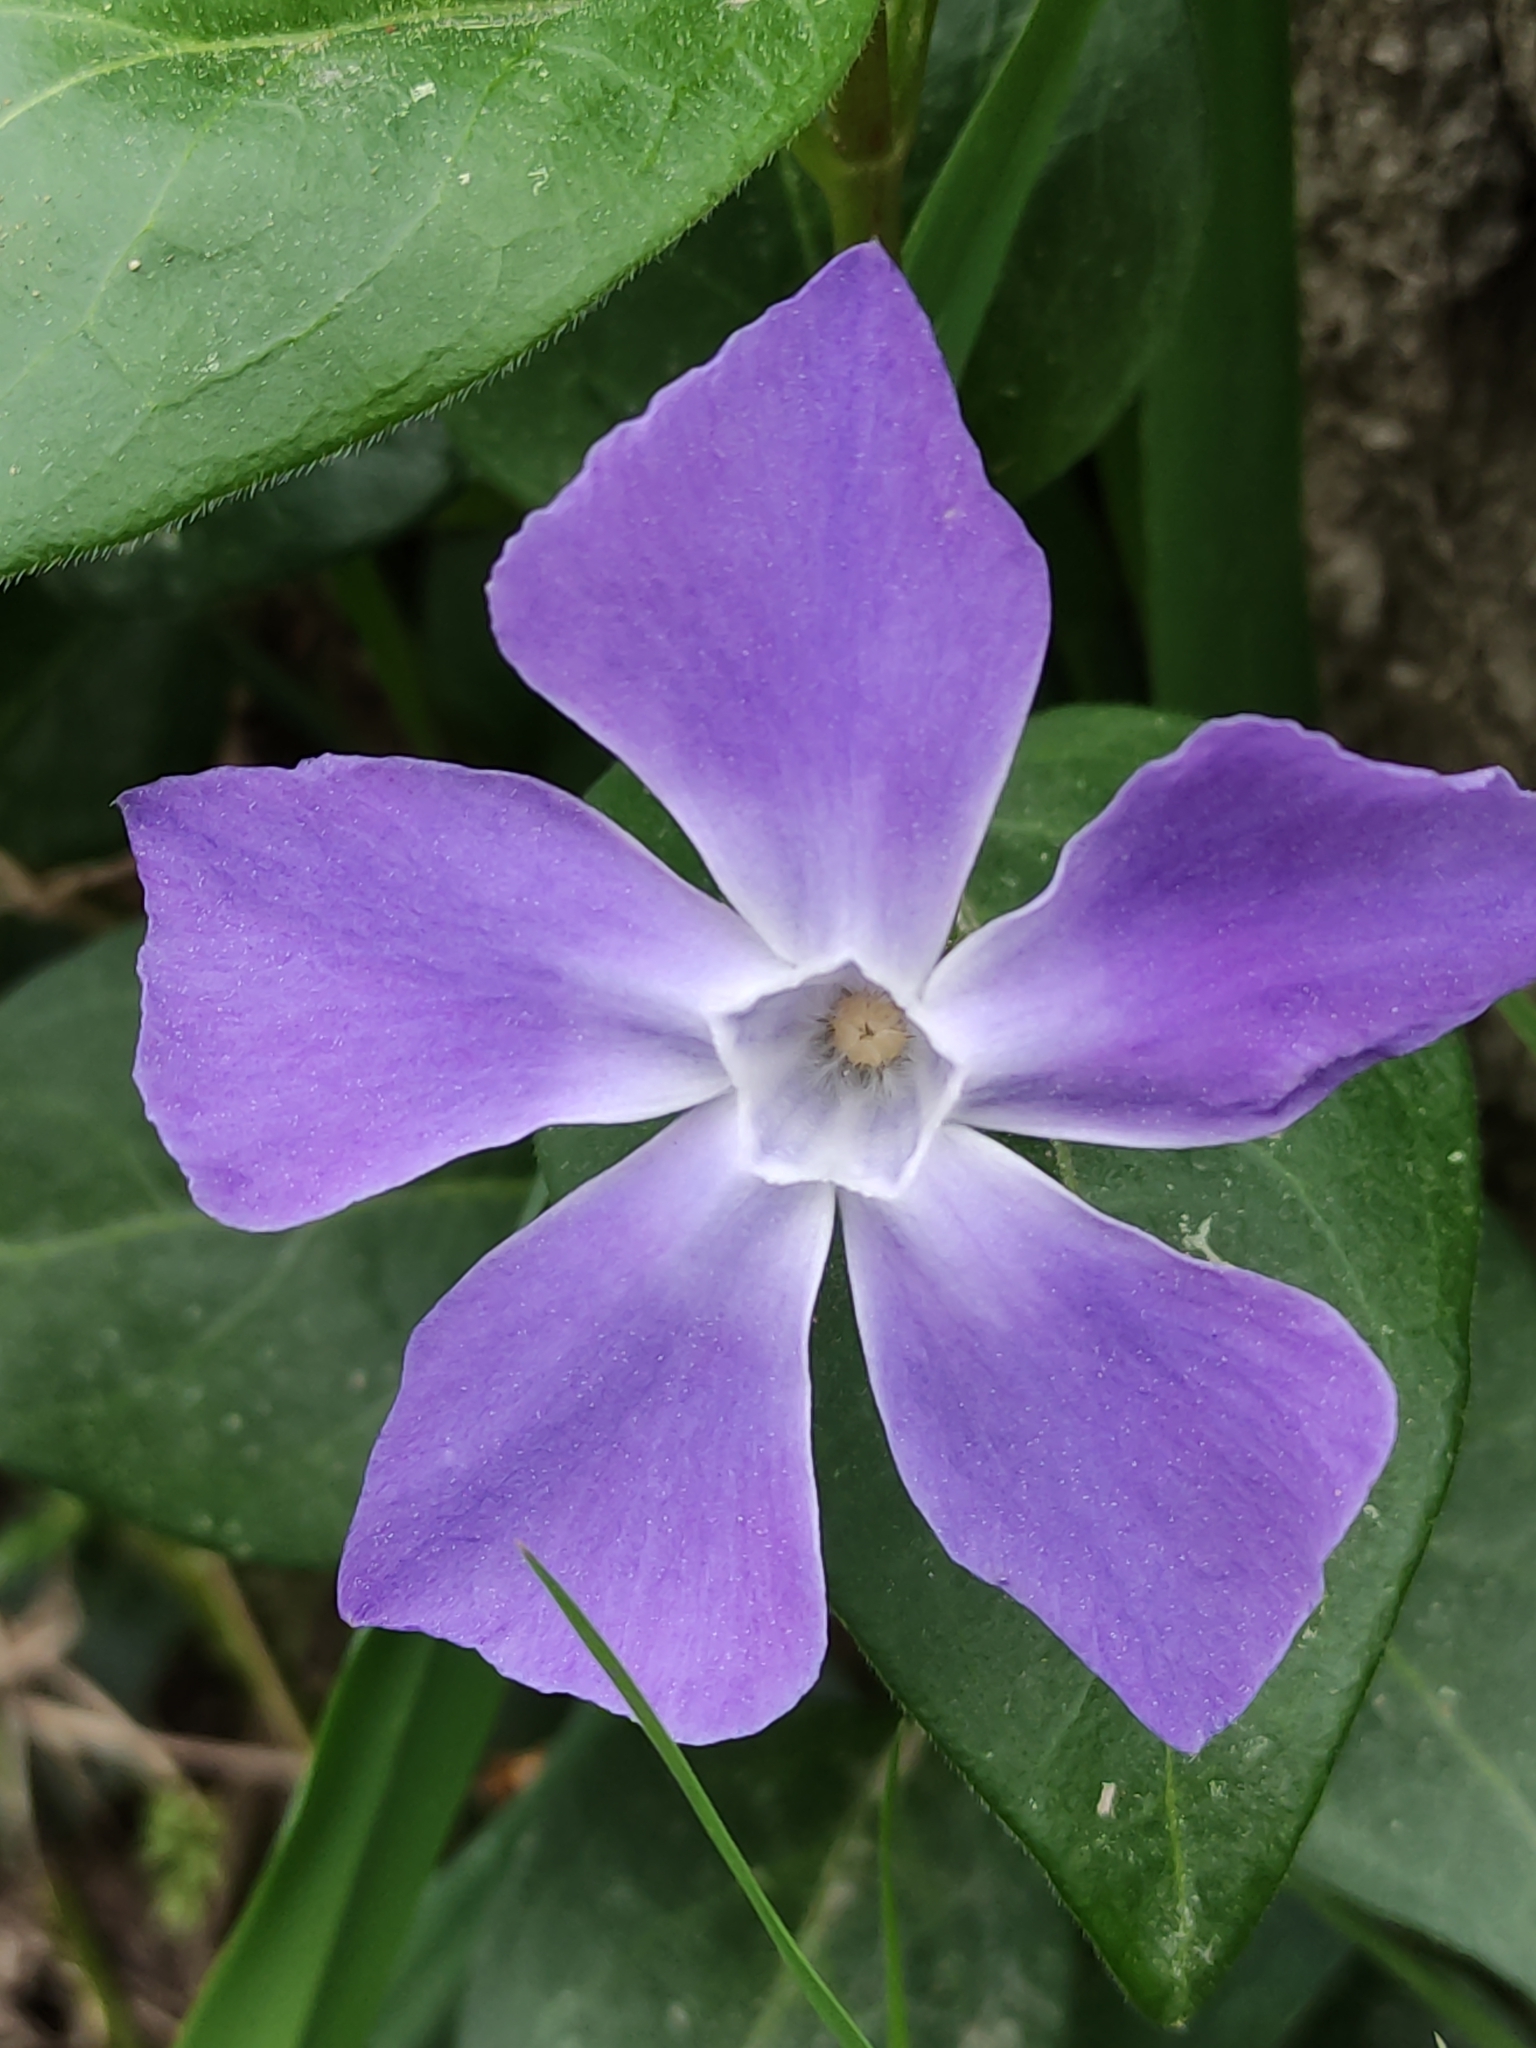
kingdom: Plantae
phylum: Tracheophyta
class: Magnoliopsida
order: Gentianales
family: Apocynaceae
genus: Vinca
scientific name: Vinca major
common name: Greater periwinkle
